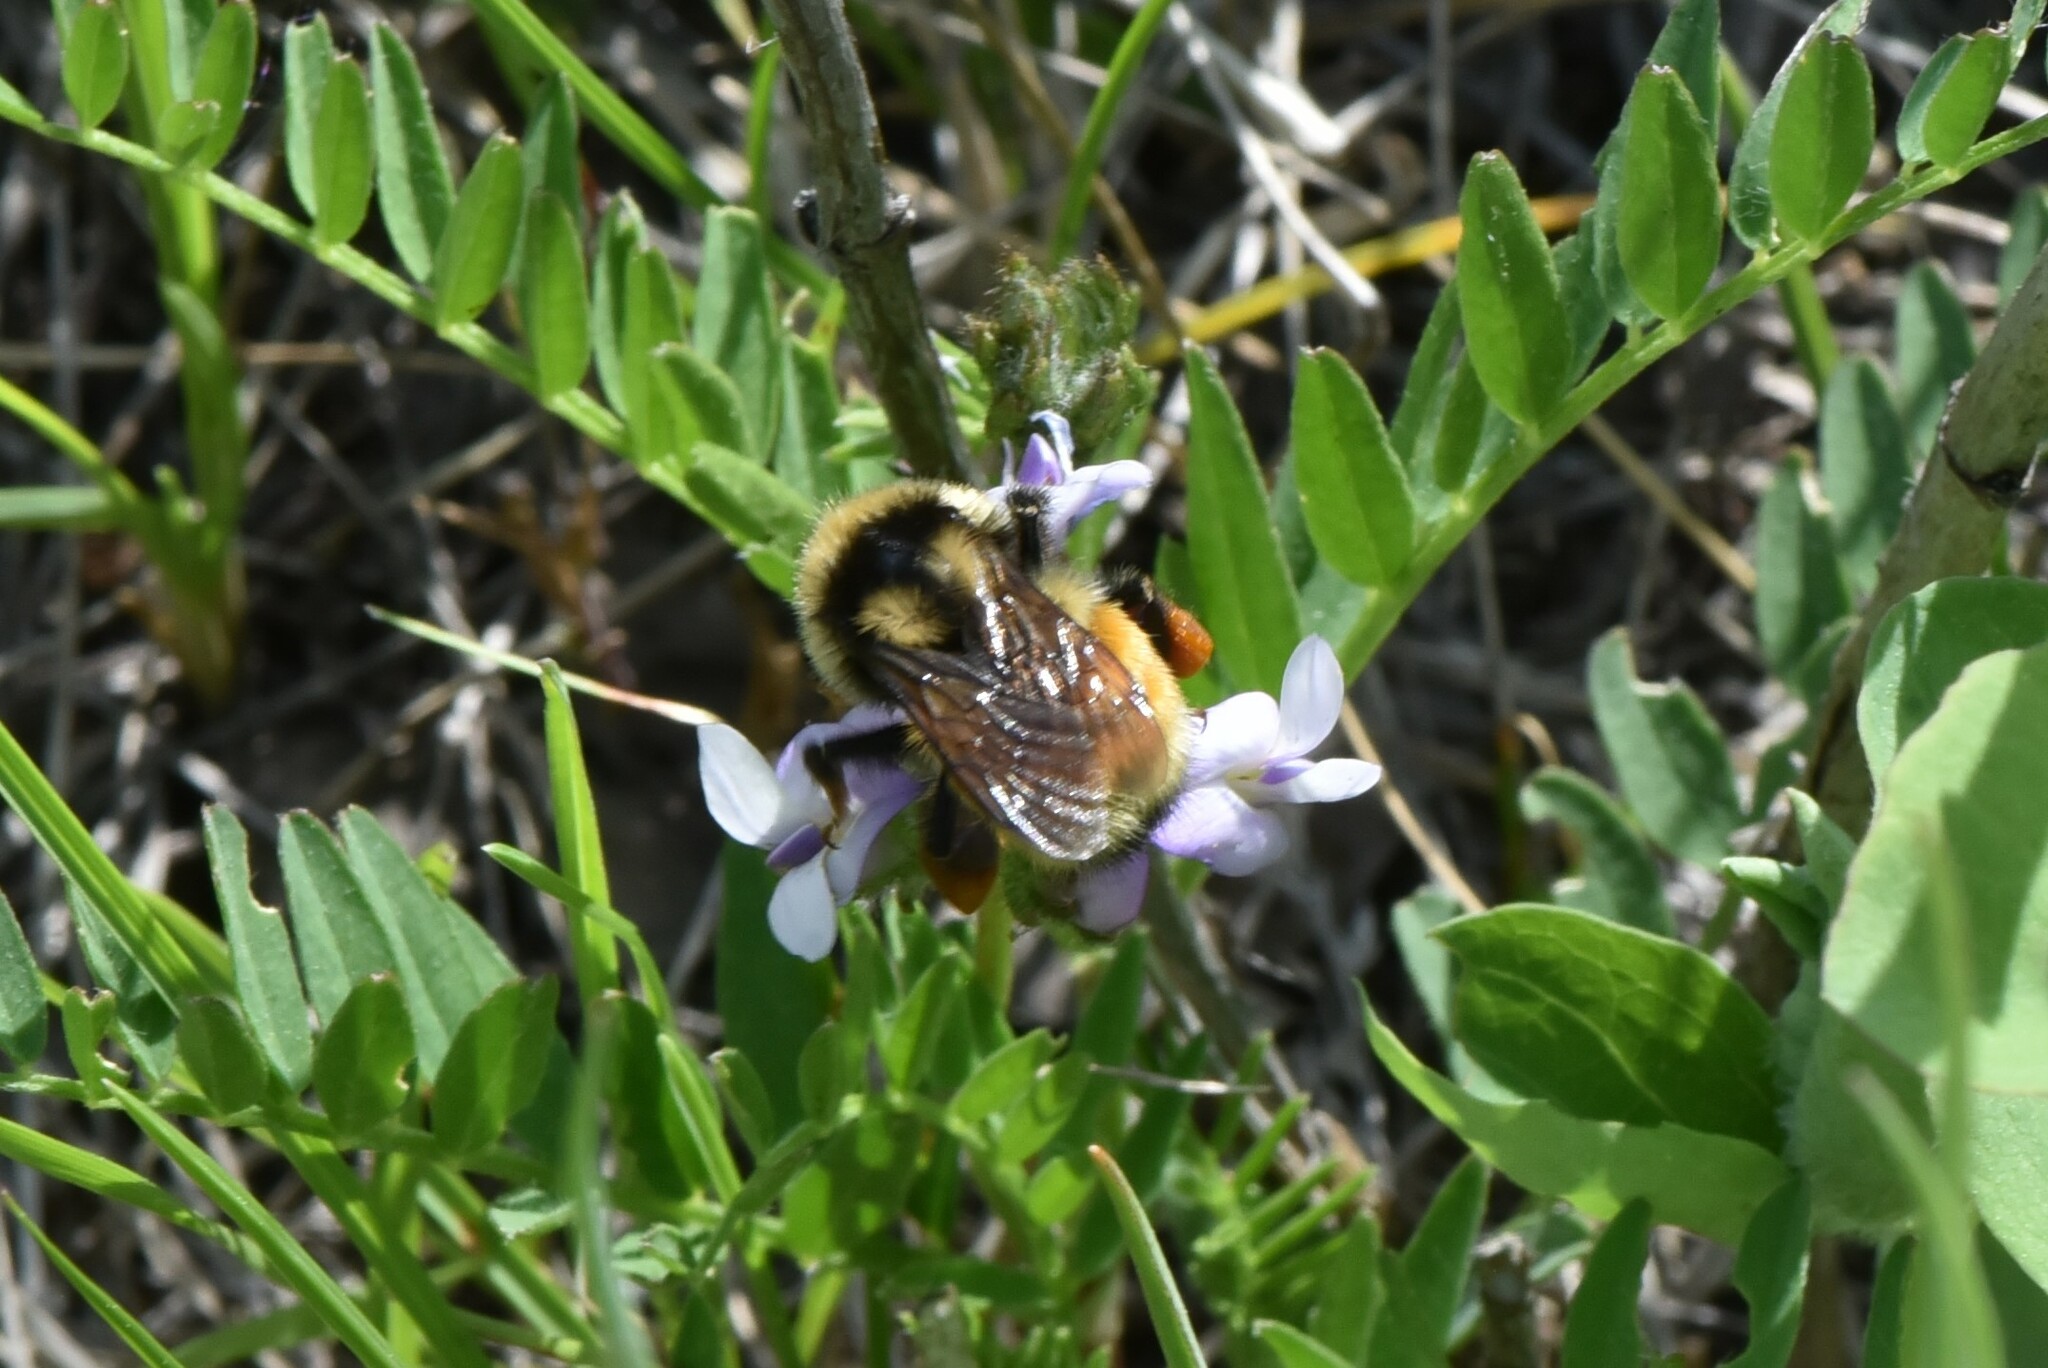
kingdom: Animalia
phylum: Arthropoda
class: Insecta
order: Hymenoptera
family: Apidae
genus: Bombus
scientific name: Bombus vancouverensis
